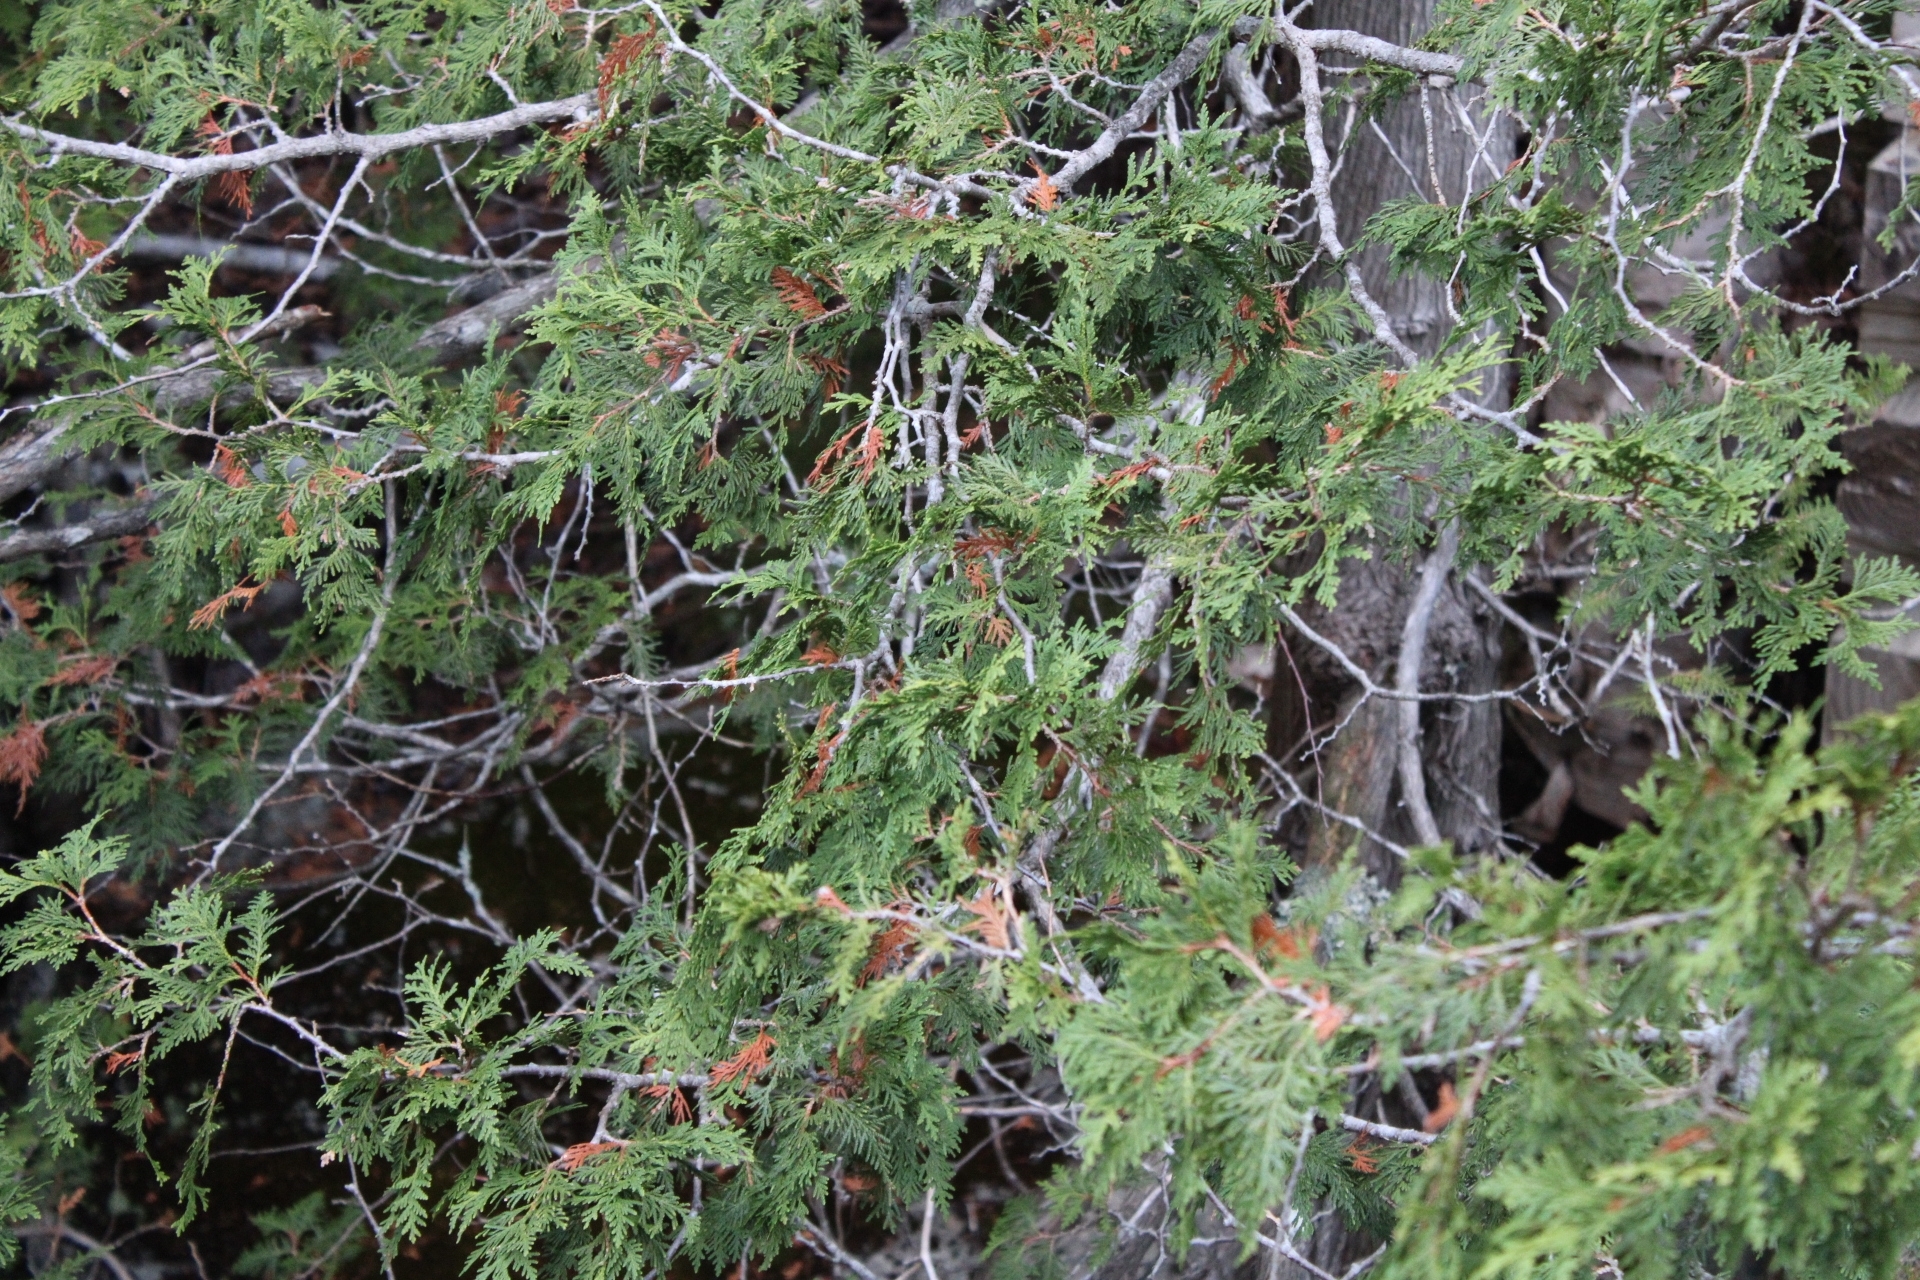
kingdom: Plantae
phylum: Tracheophyta
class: Pinopsida
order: Pinales
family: Cupressaceae
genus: Thuja
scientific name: Thuja occidentalis
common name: Northern white-cedar
